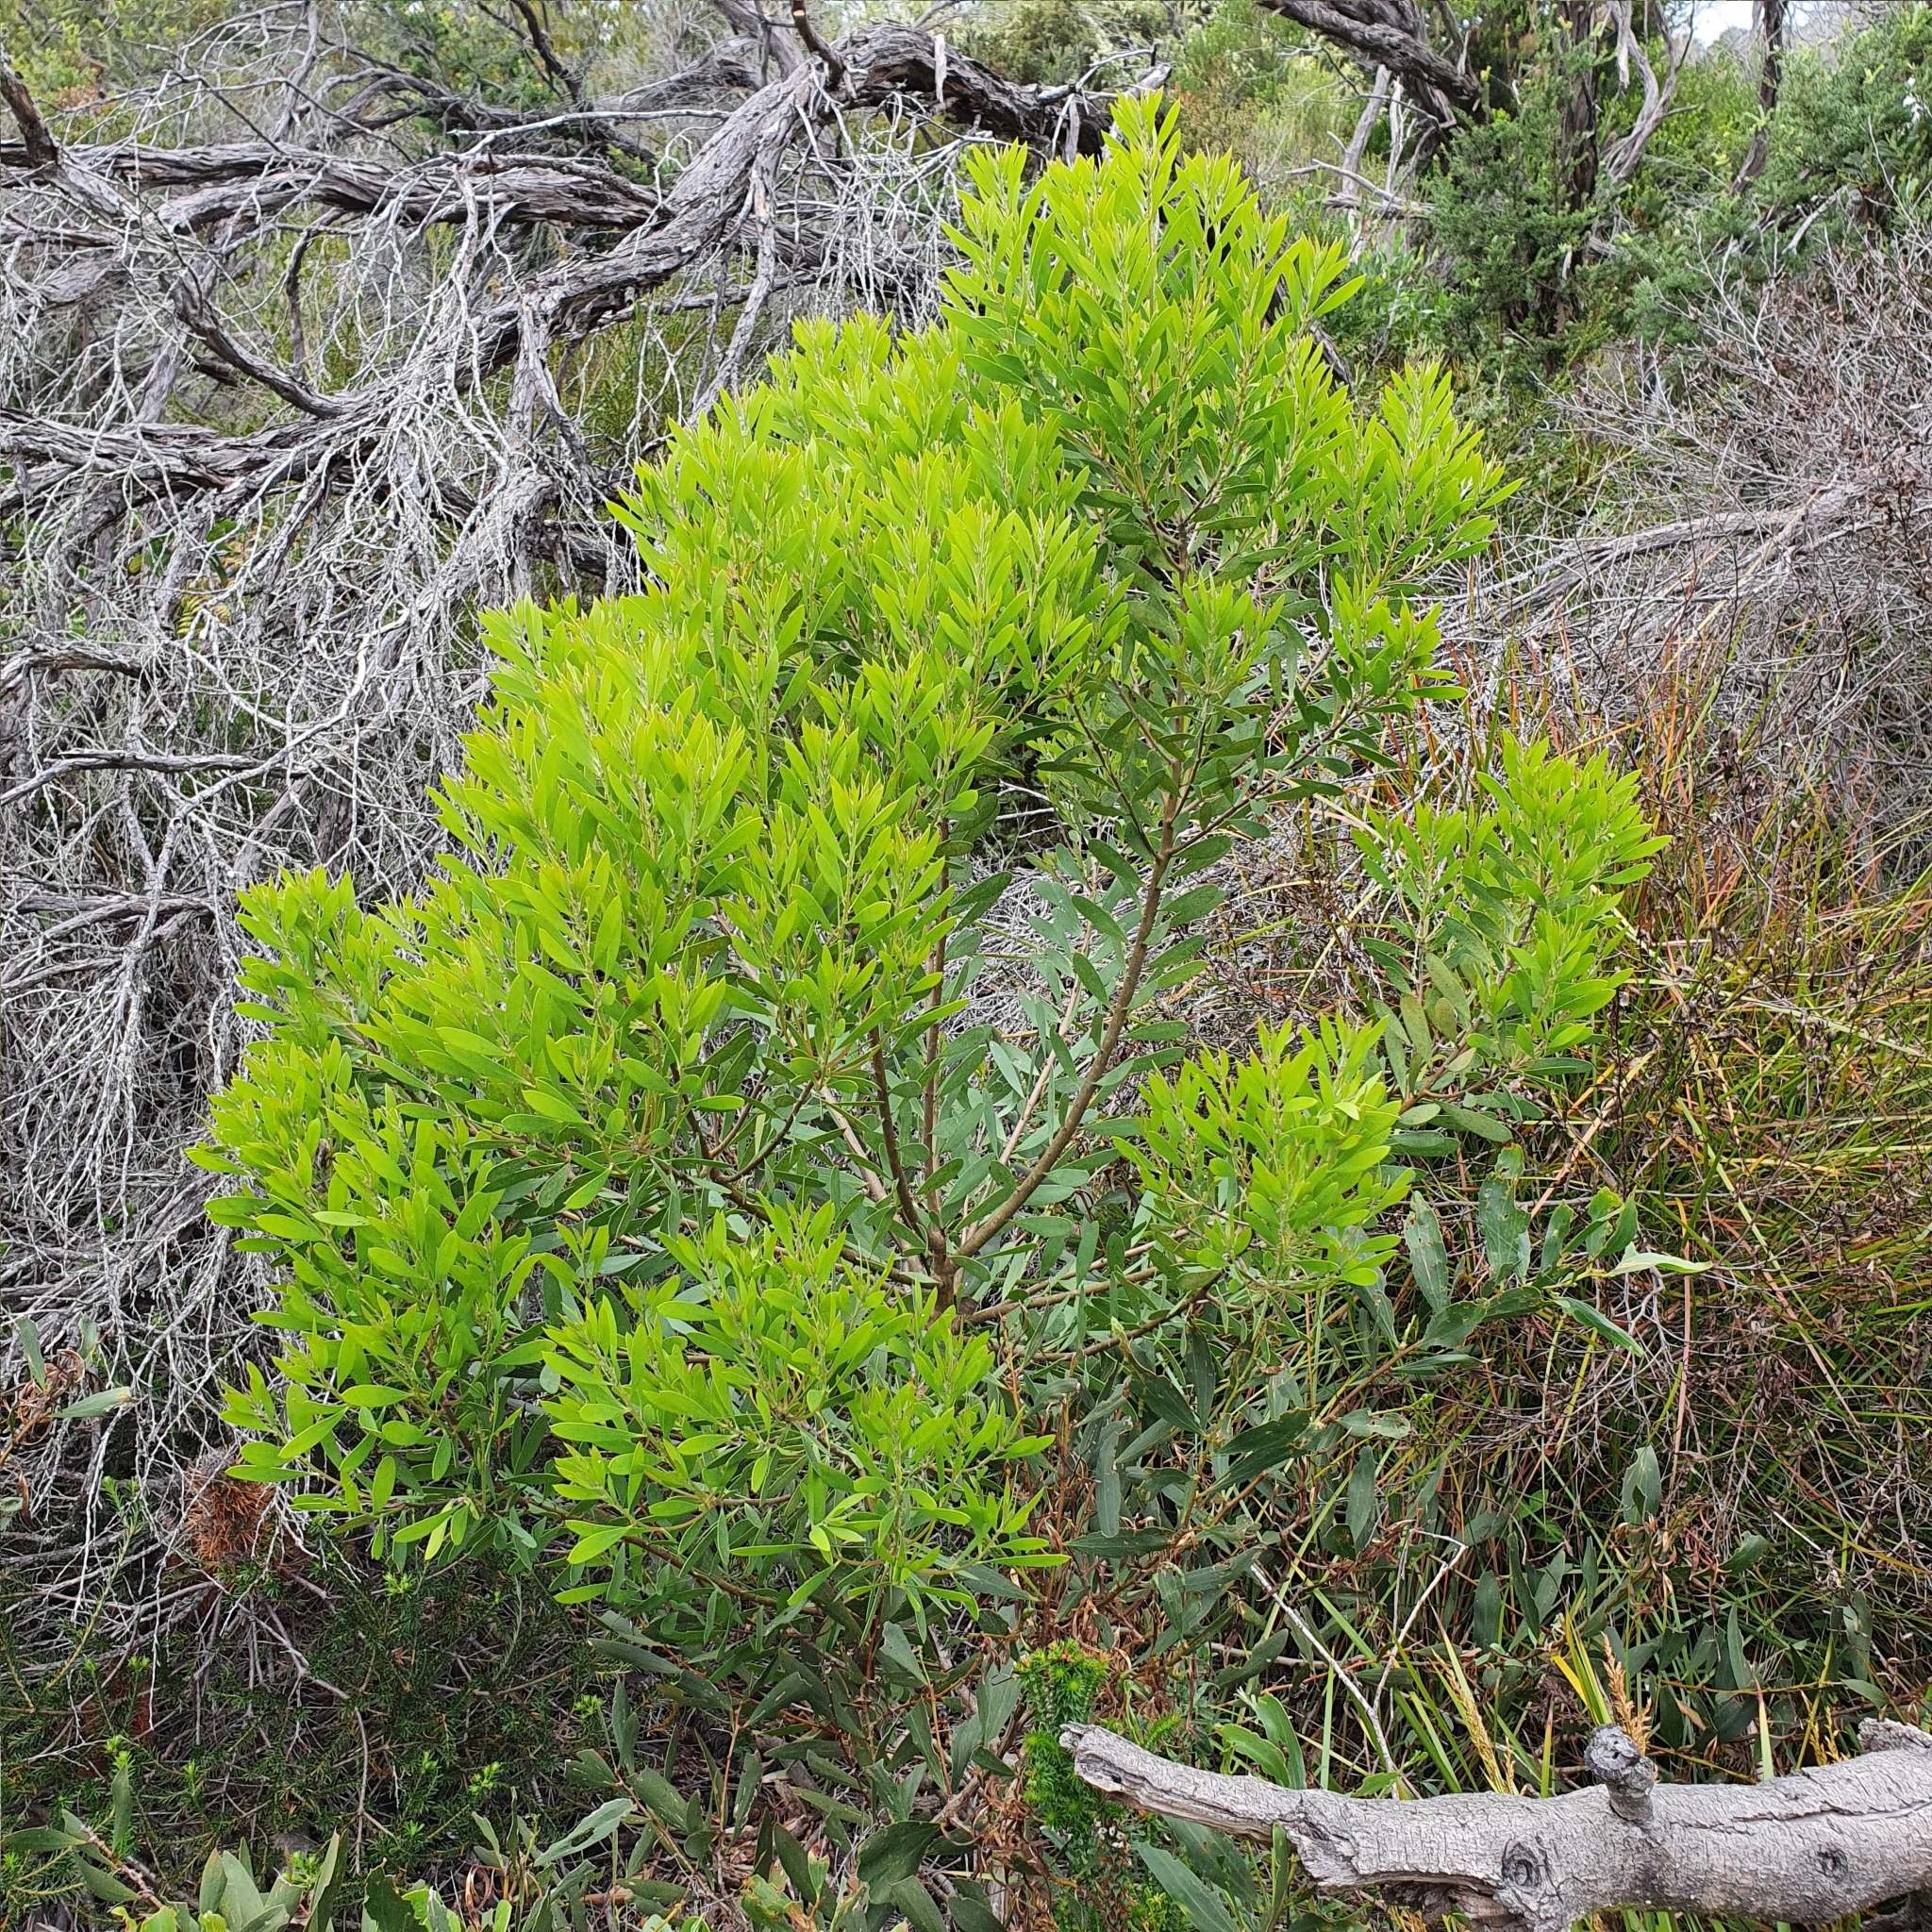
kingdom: Plantae
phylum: Tracheophyta
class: Magnoliopsida
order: Proteales
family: Proteaceae
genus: Persoonia
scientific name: Persoonia lanceolata
